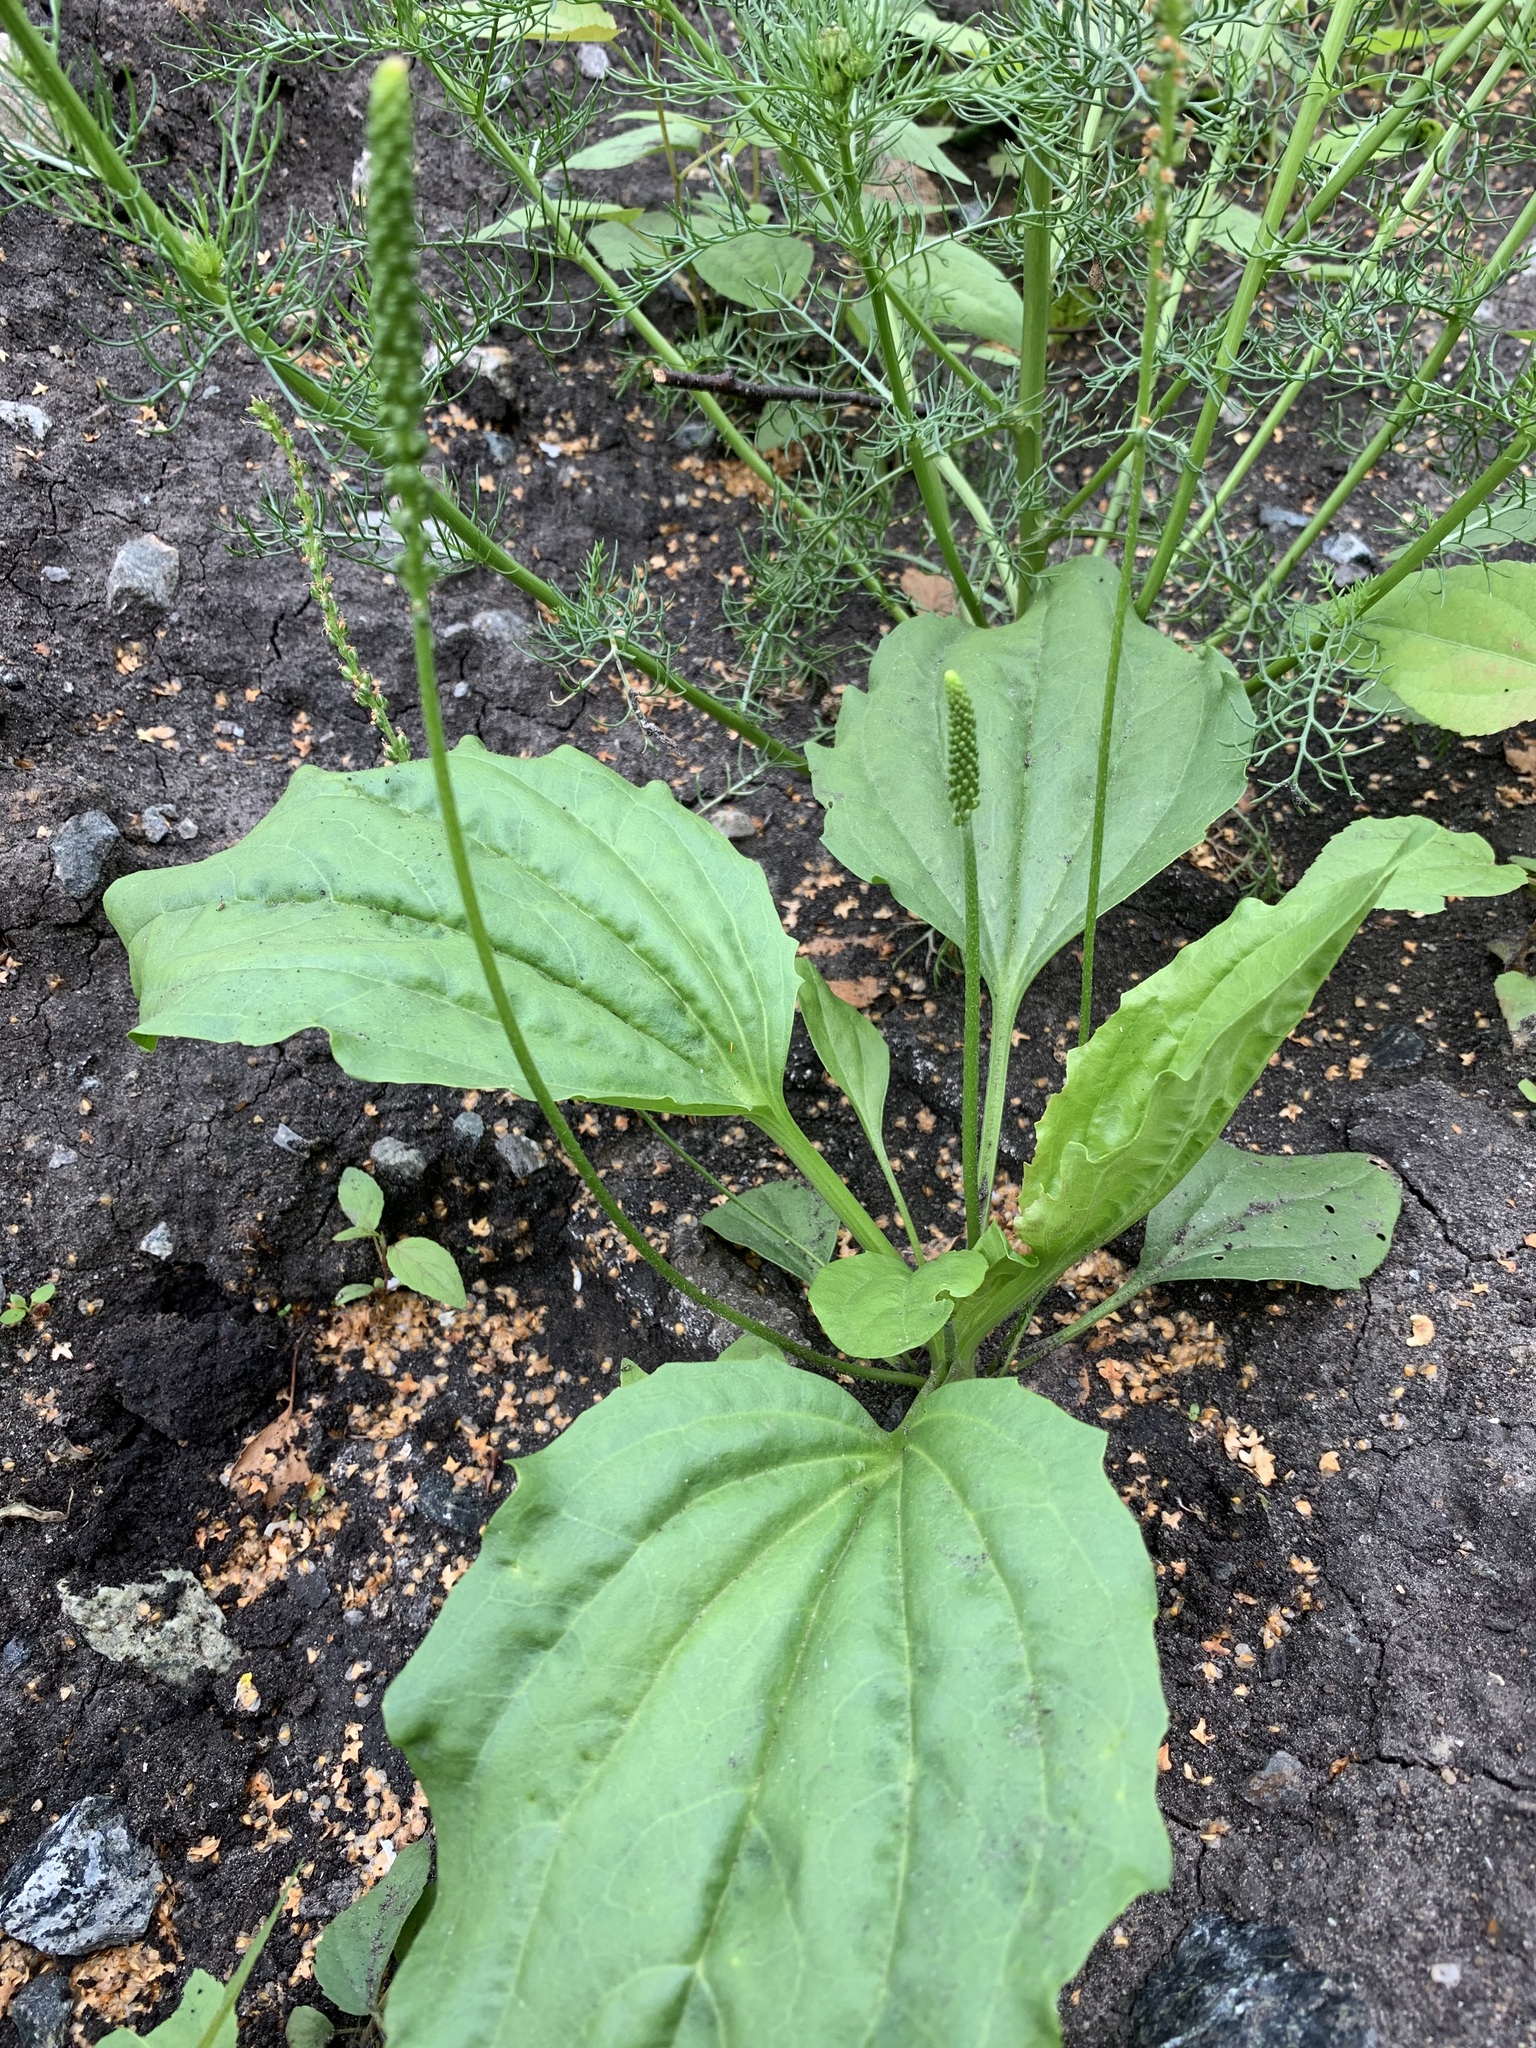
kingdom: Plantae
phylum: Tracheophyta
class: Magnoliopsida
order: Lamiales
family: Plantaginaceae
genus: Plantago
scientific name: Plantago major
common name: Common plantain
